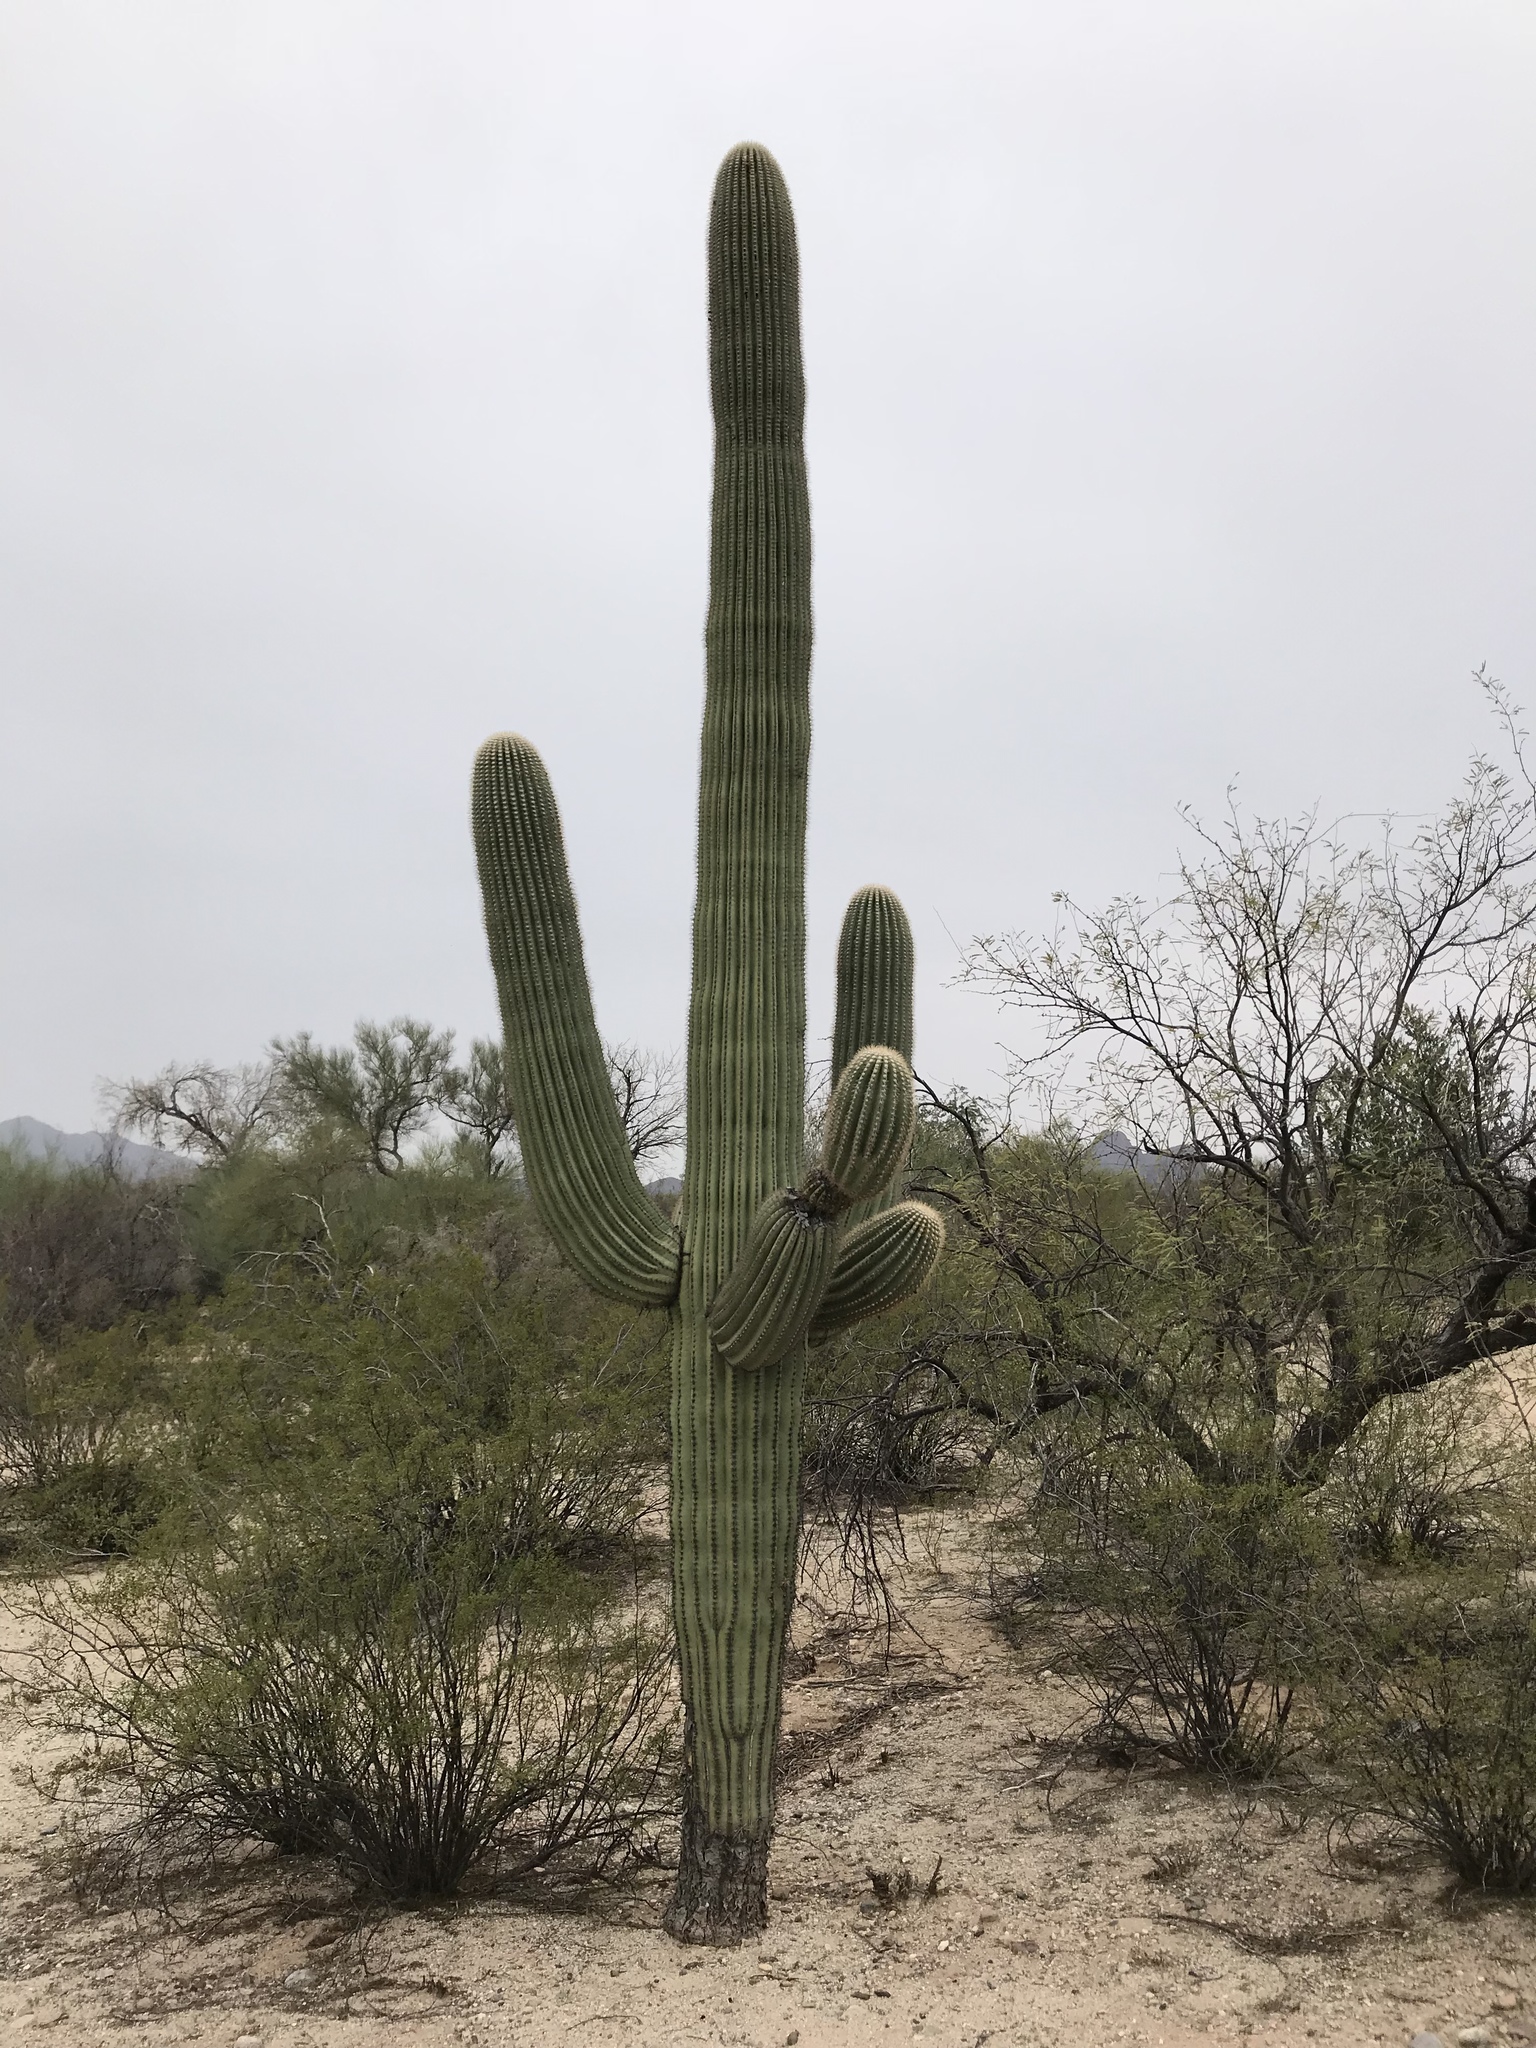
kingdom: Plantae
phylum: Tracheophyta
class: Magnoliopsida
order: Caryophyllales
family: Cactaceae
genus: Carnegiea
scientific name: Carnegiea gigantea
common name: Saguaro
